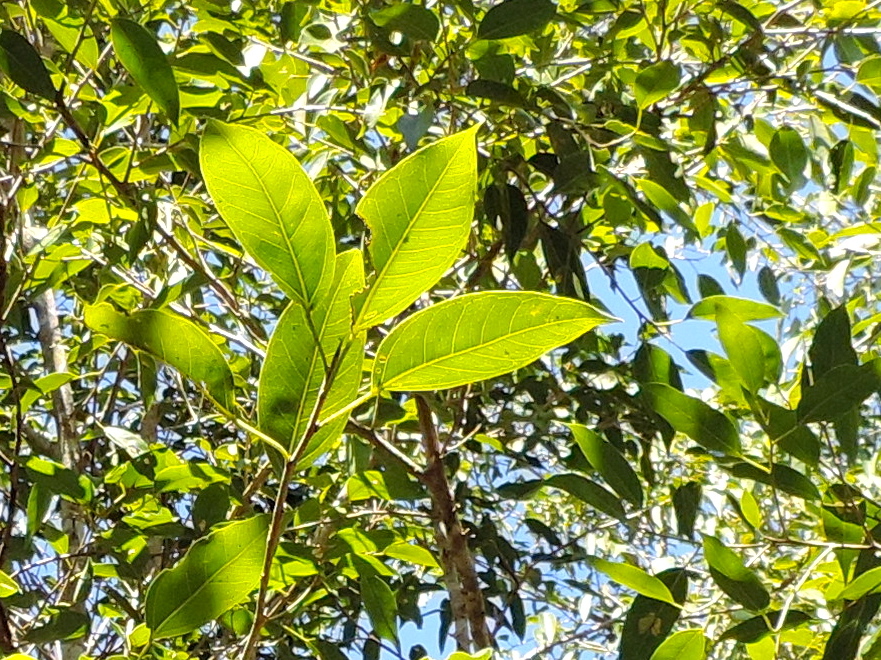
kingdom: Plantae
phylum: Tracheophyta
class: Magnoliopsida
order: Rosales
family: Moraceae
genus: Ficus
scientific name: Ficus pertusa
